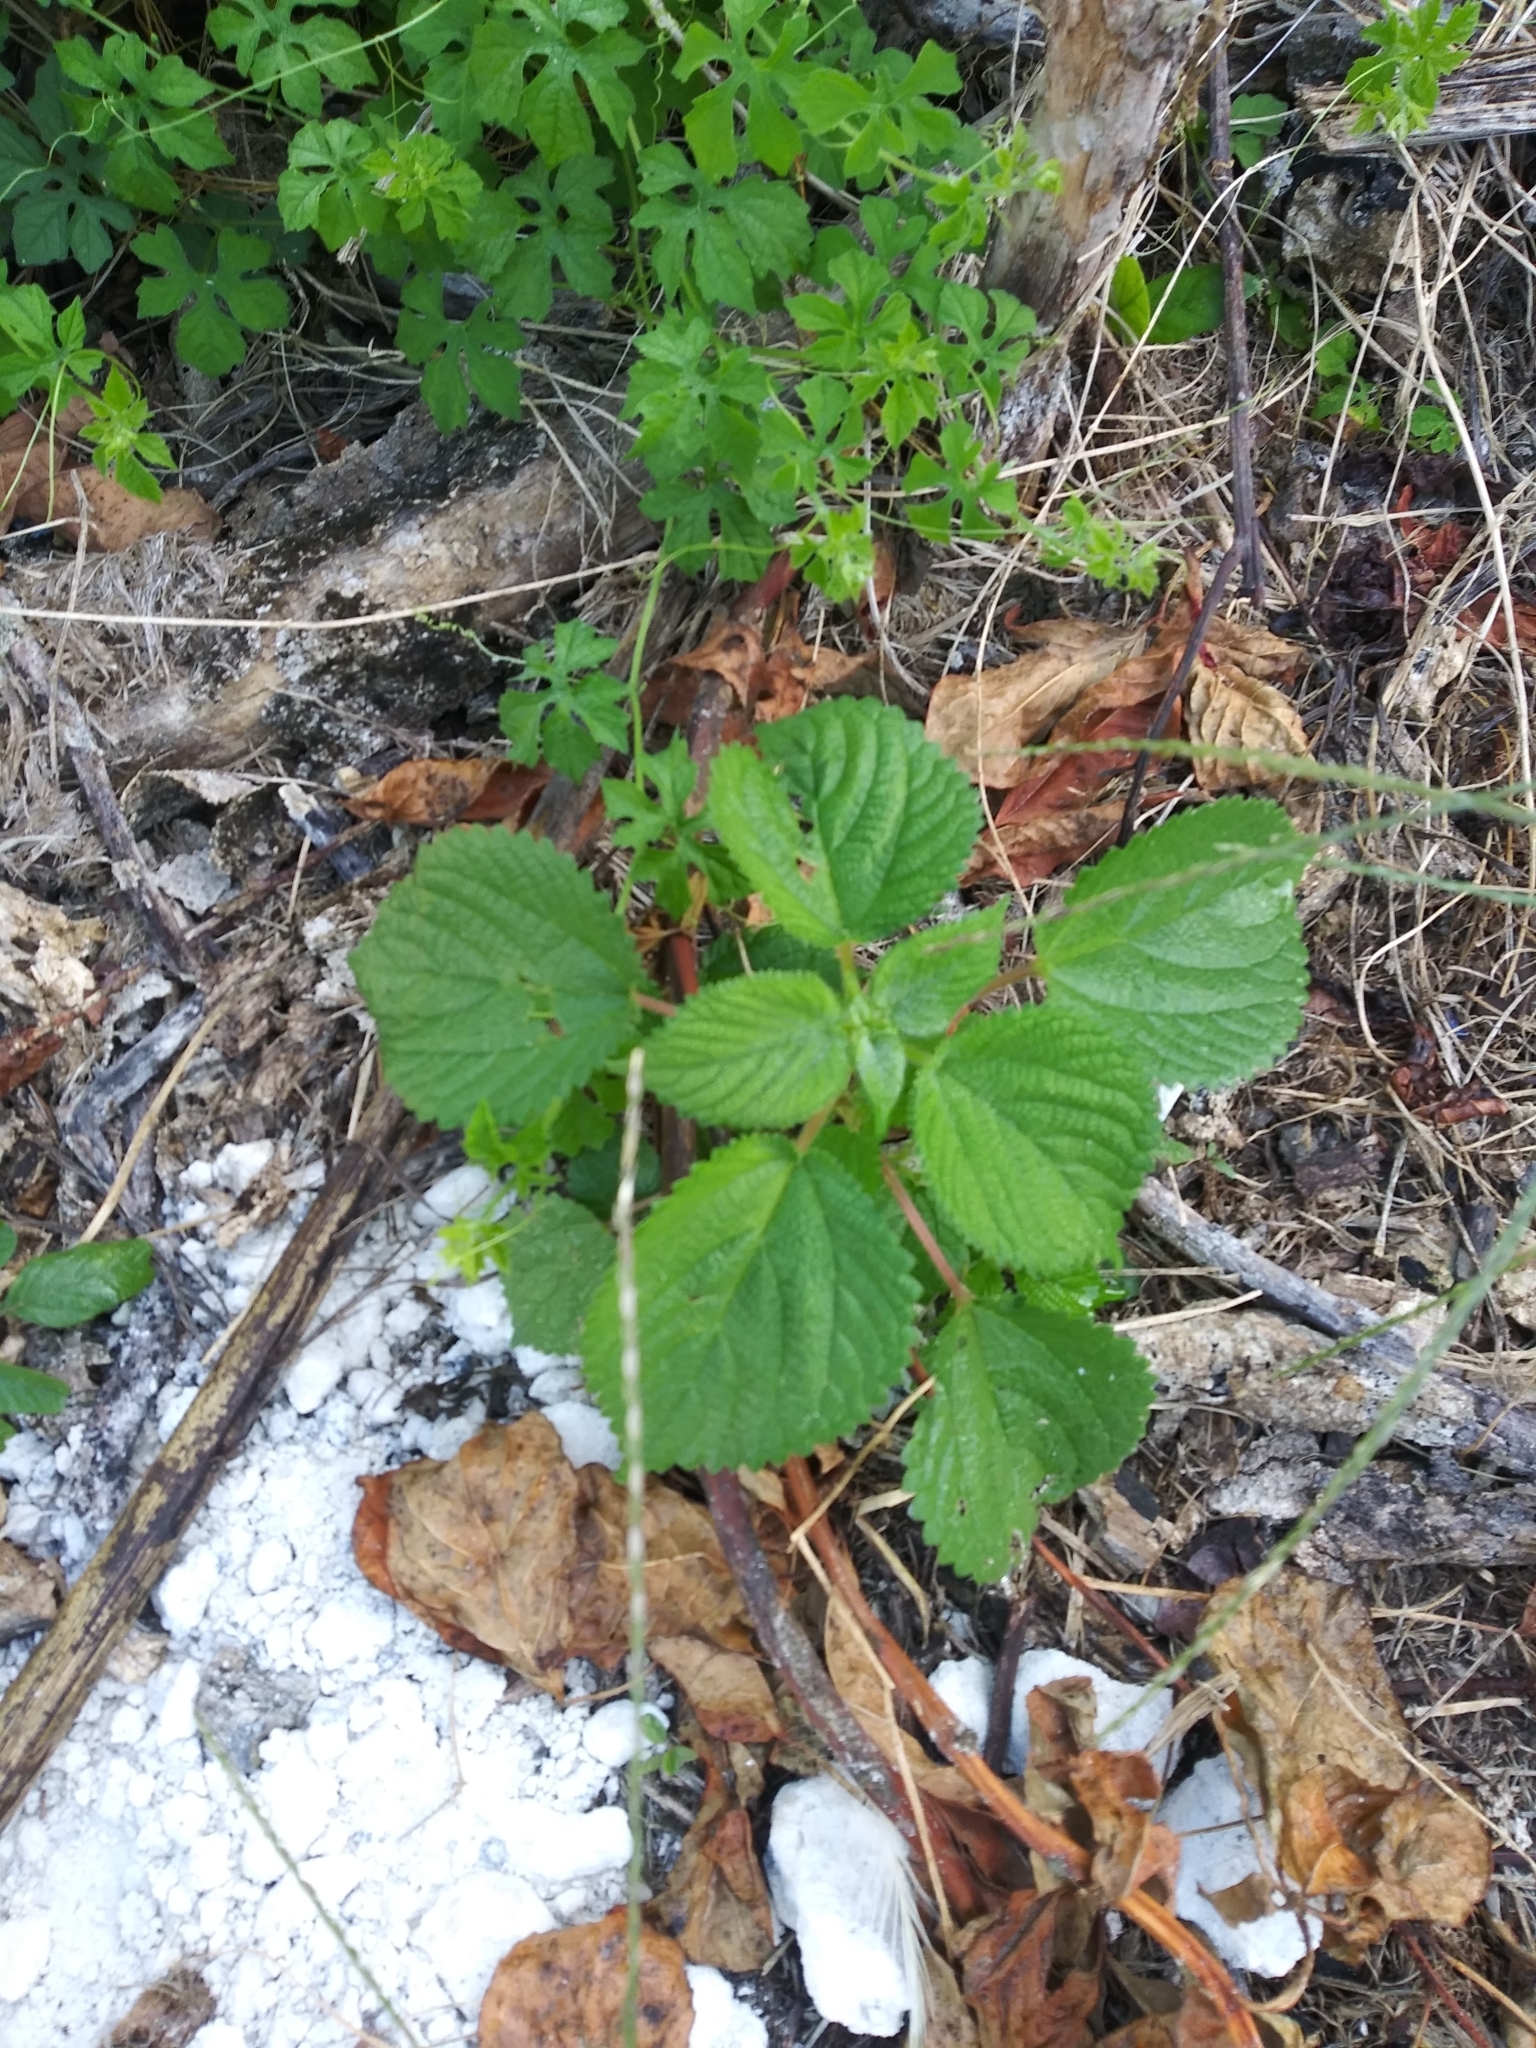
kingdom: Plantae
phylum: Tracheophyta
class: Magnoliopsida
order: Lamiales
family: Verbenaceae
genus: Stachytarpheta
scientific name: Stachytarpheta cayennensis
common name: Cayenne porterweed
